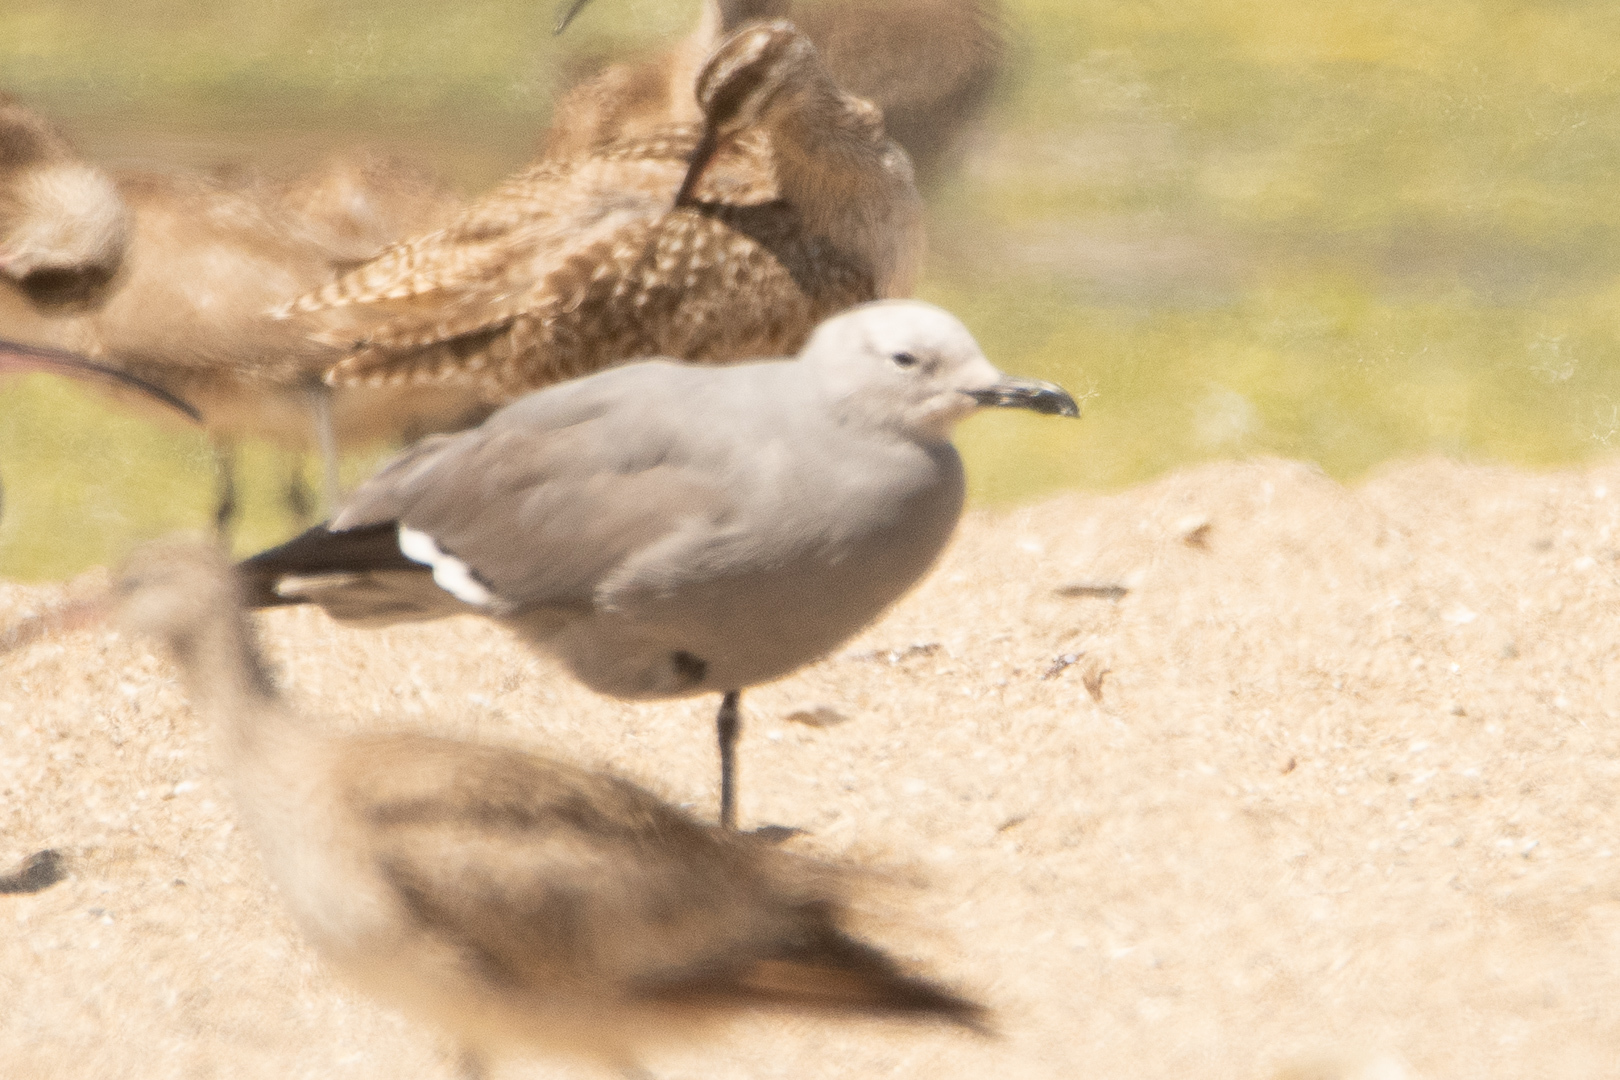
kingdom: Animalia
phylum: Chordata
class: Aves
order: Charadriiformes
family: Laridae
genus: Leucophaeus
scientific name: Leucophaeus modestus
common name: Gray gull
